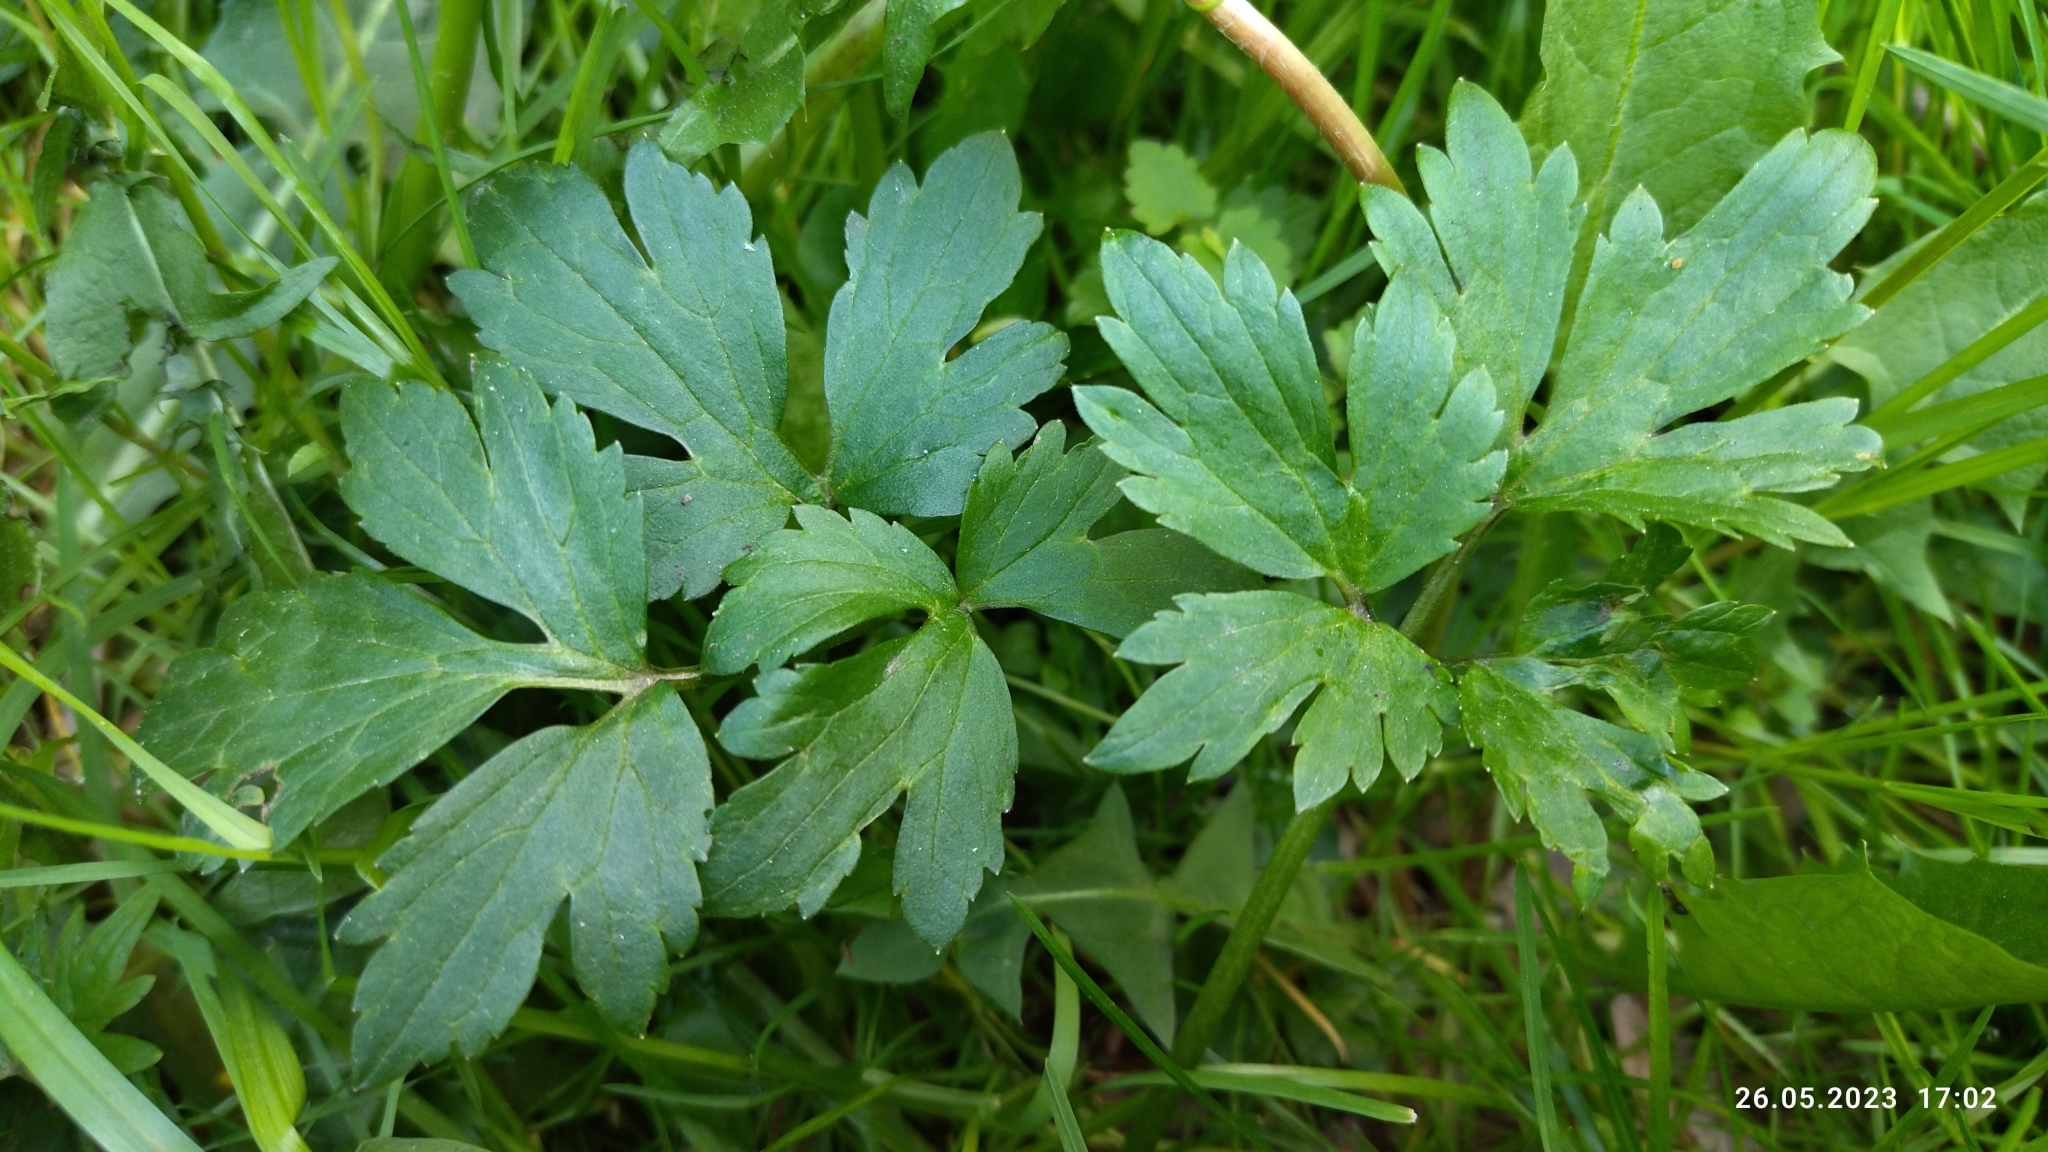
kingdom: Plantae
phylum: Tracheophyta
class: Magnoliopsida
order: Ranunculales
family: Ranunculaceae
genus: Ranunculus
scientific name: Ranunculus repens
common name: Creeping buttercup
